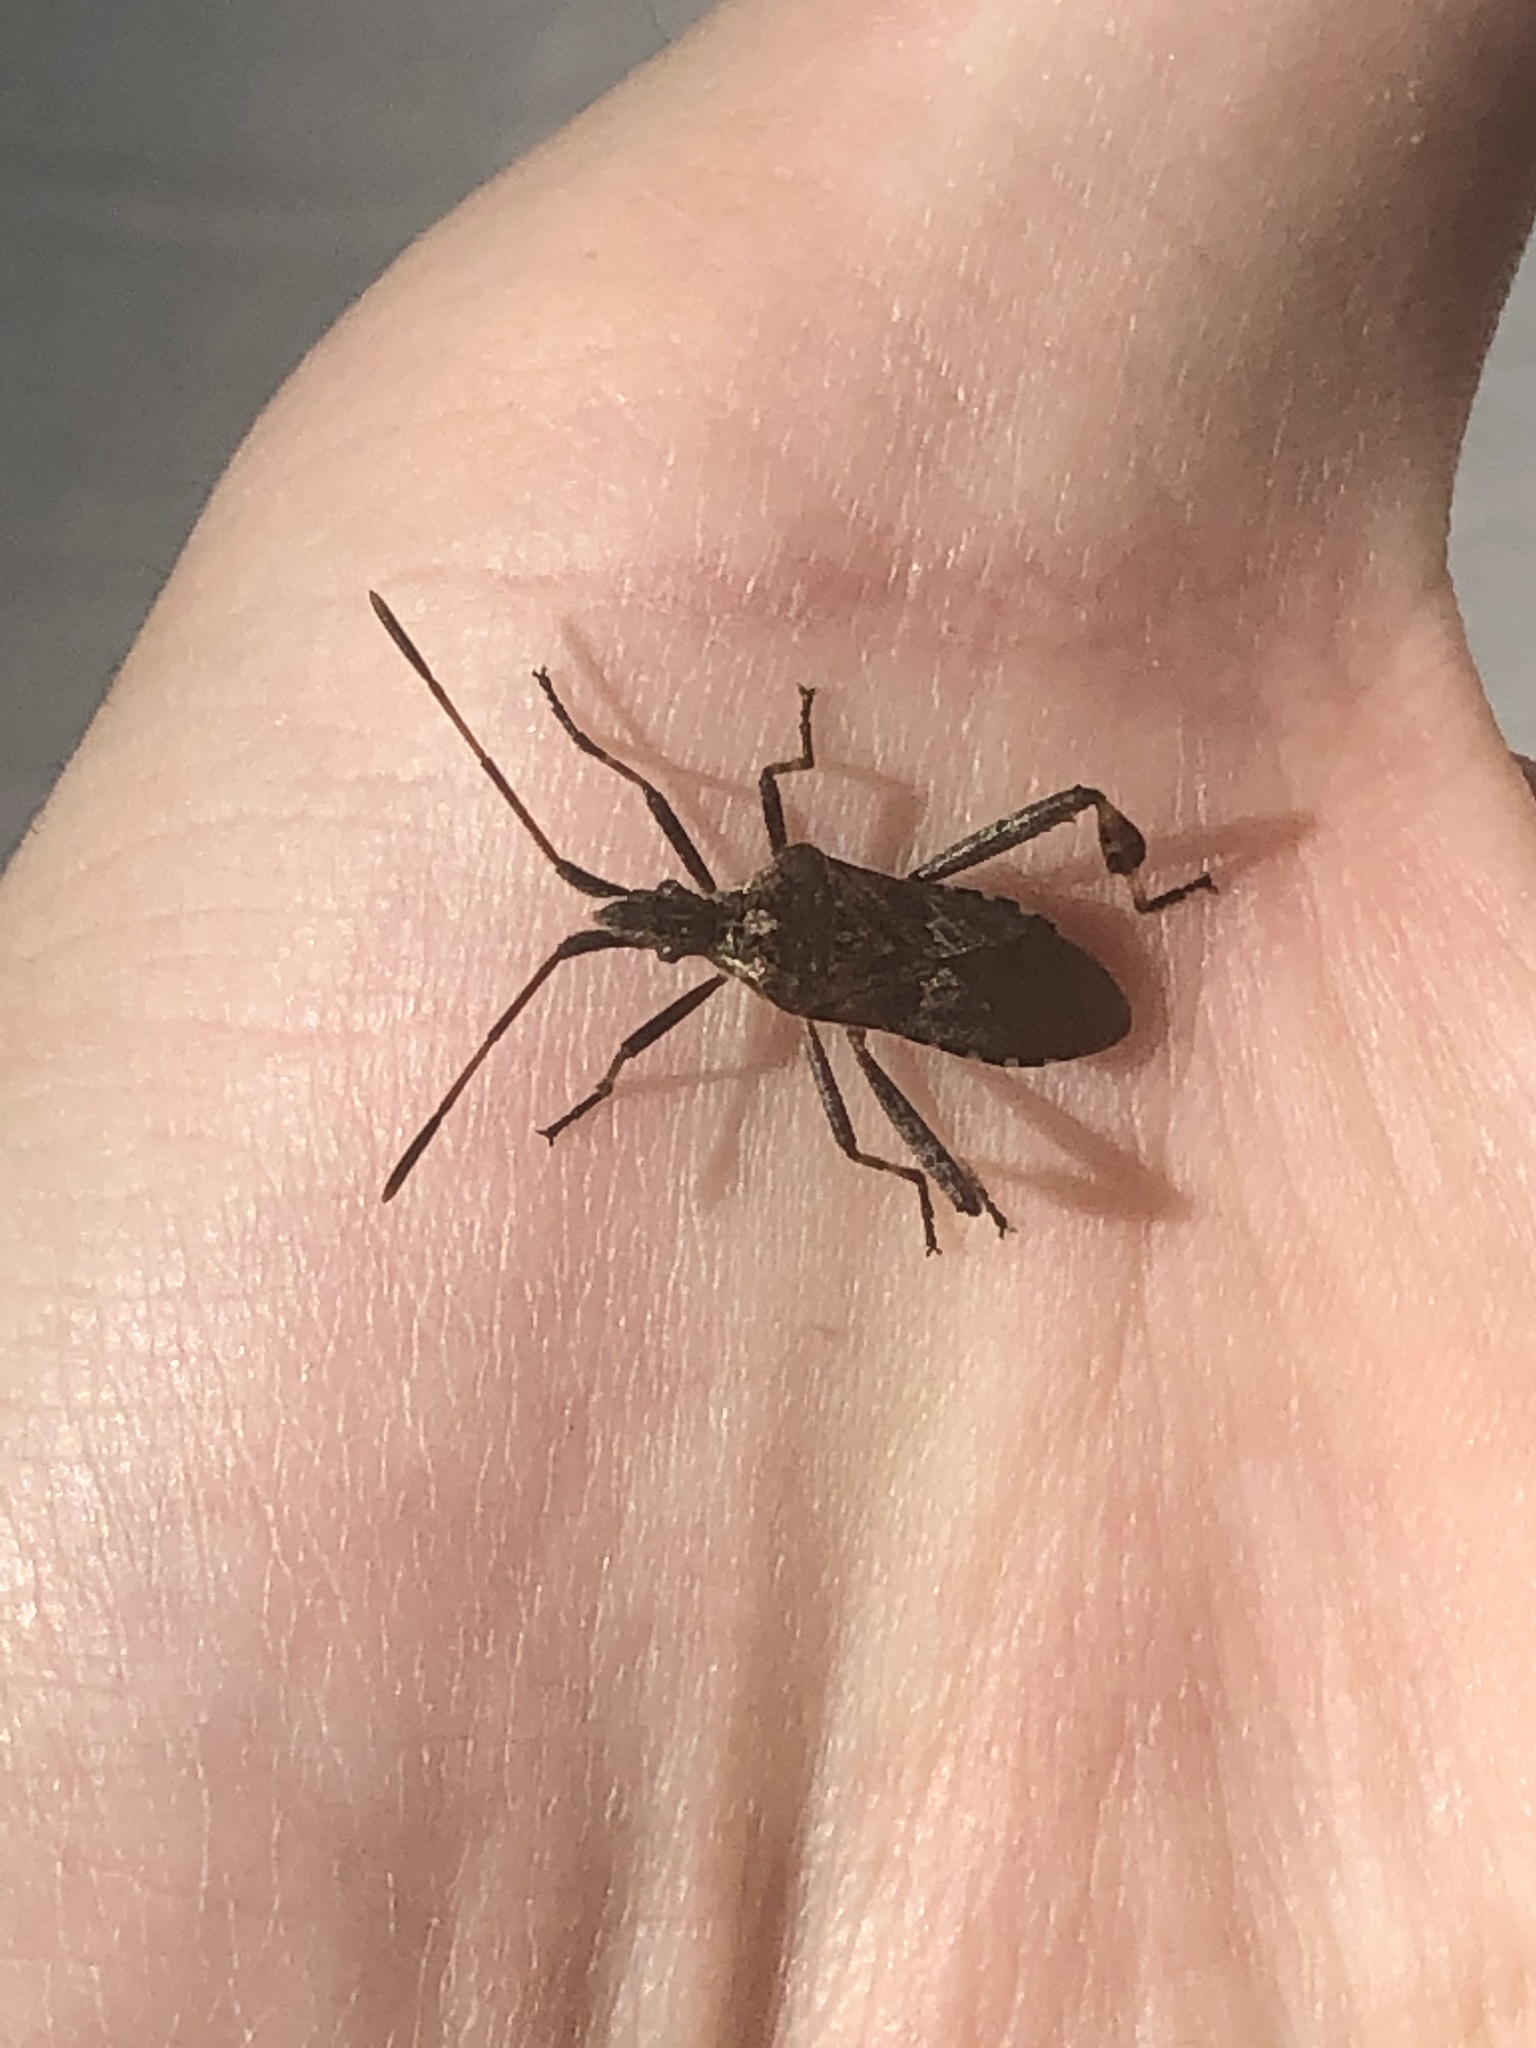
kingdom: Animalia
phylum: Arthropoda
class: Insecta
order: Hemiptera
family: Coreidae
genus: Leptoglossus
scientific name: Leptoglossus occidentalis
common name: Western conifer-seed bug
